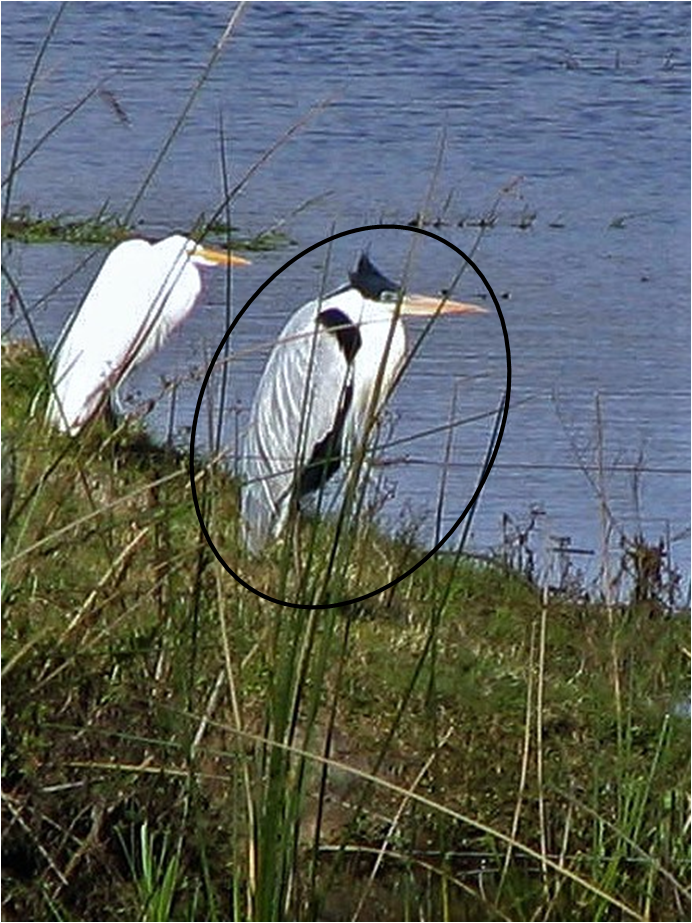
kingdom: Animalia
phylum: Chordata
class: Aves
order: Pelecaniformes
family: Ardeidae
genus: Ardea
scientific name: Ardea cocoi
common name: Cocoi heron
